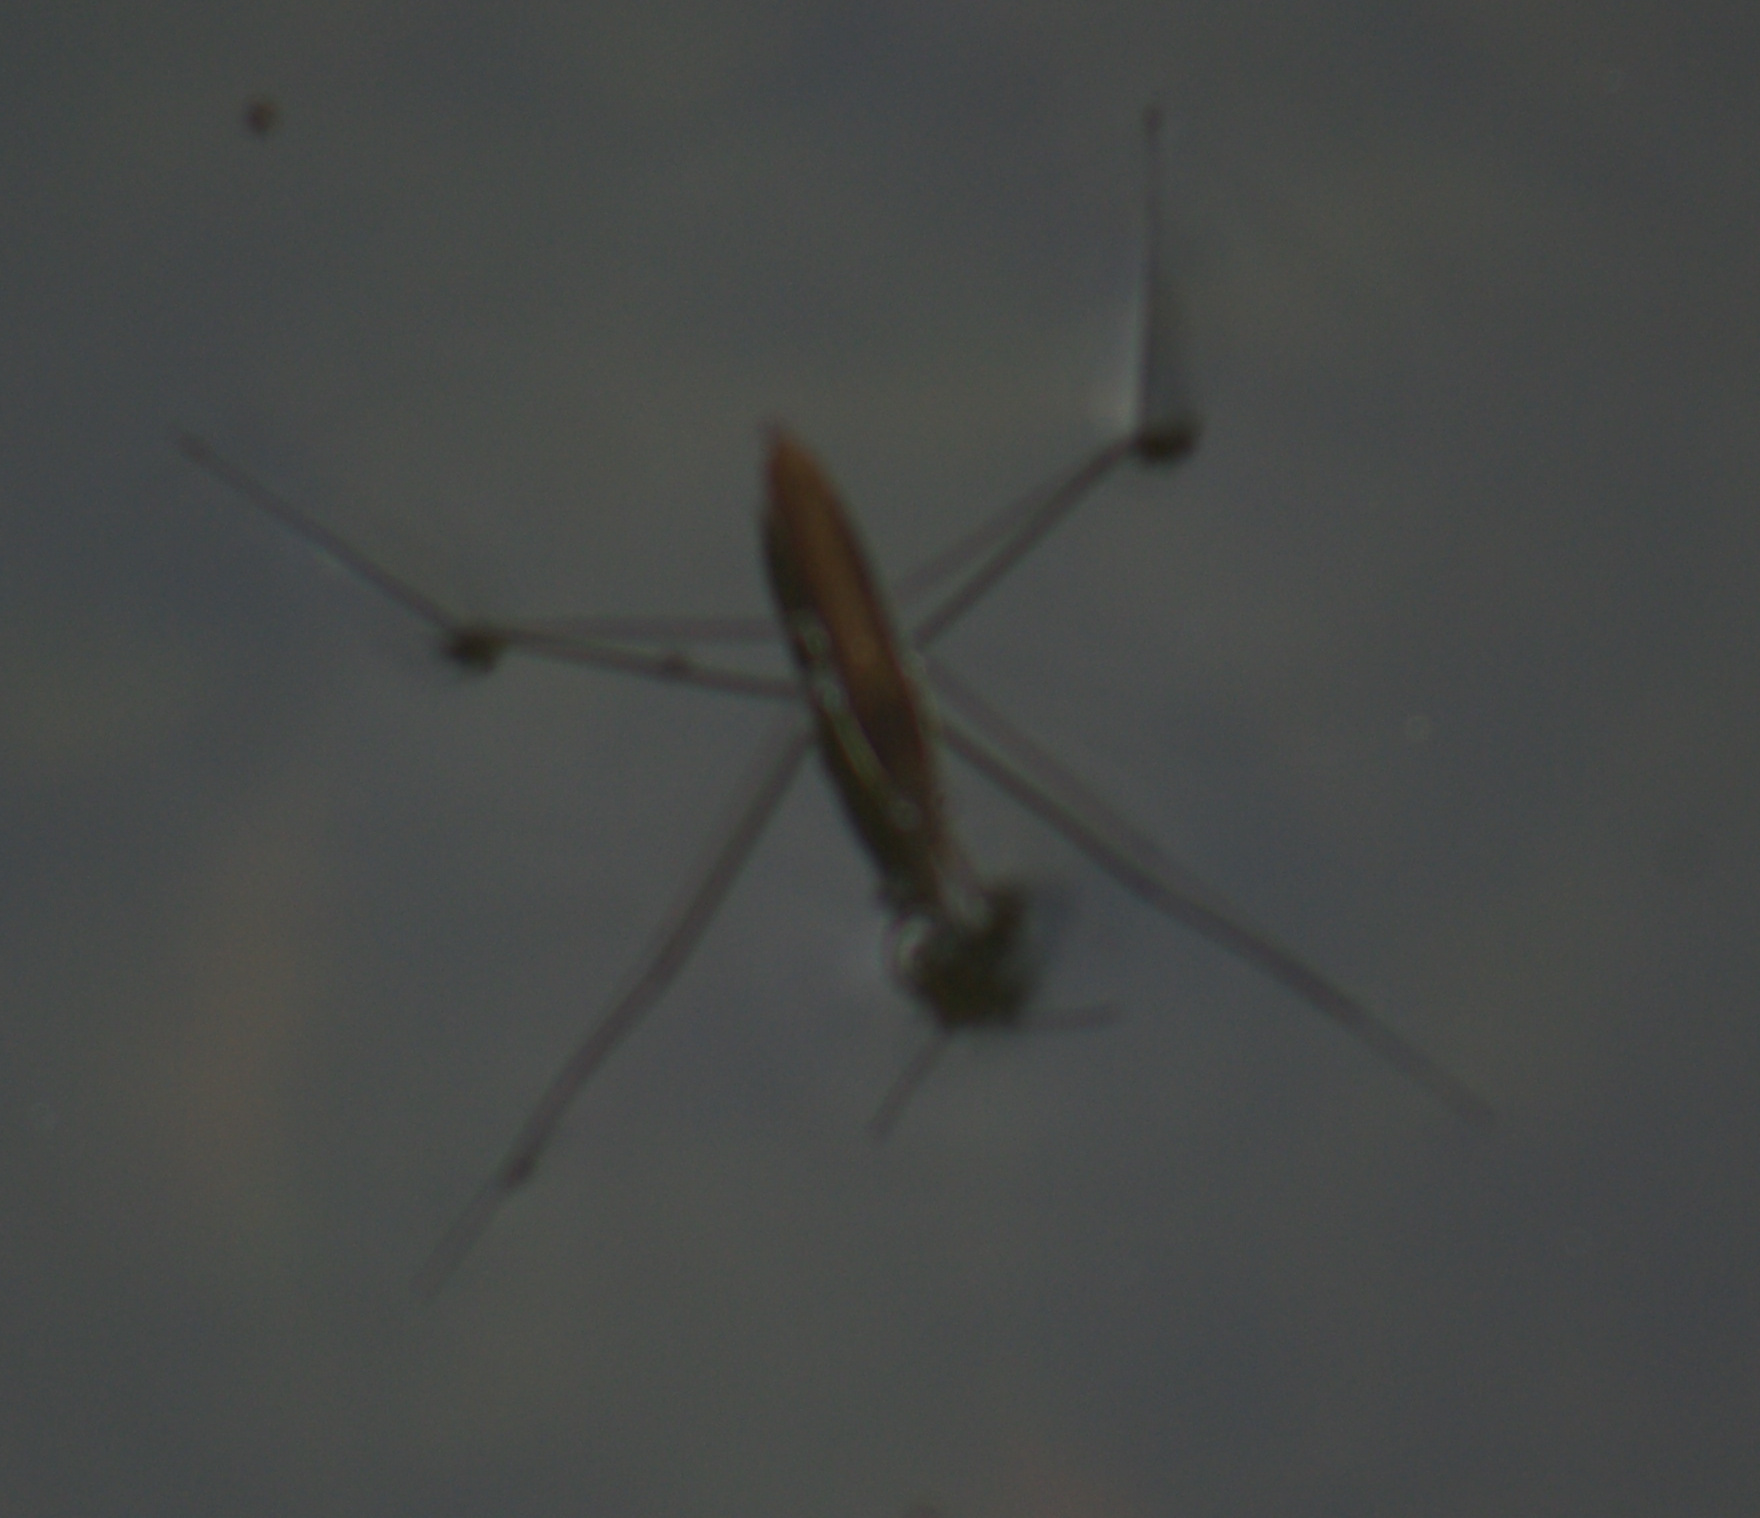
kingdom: Animalia
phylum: Arthropoda
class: Insecta
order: Hemiptera
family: Gerridae
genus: Limnoporus
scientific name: Limnoporus dissortis
